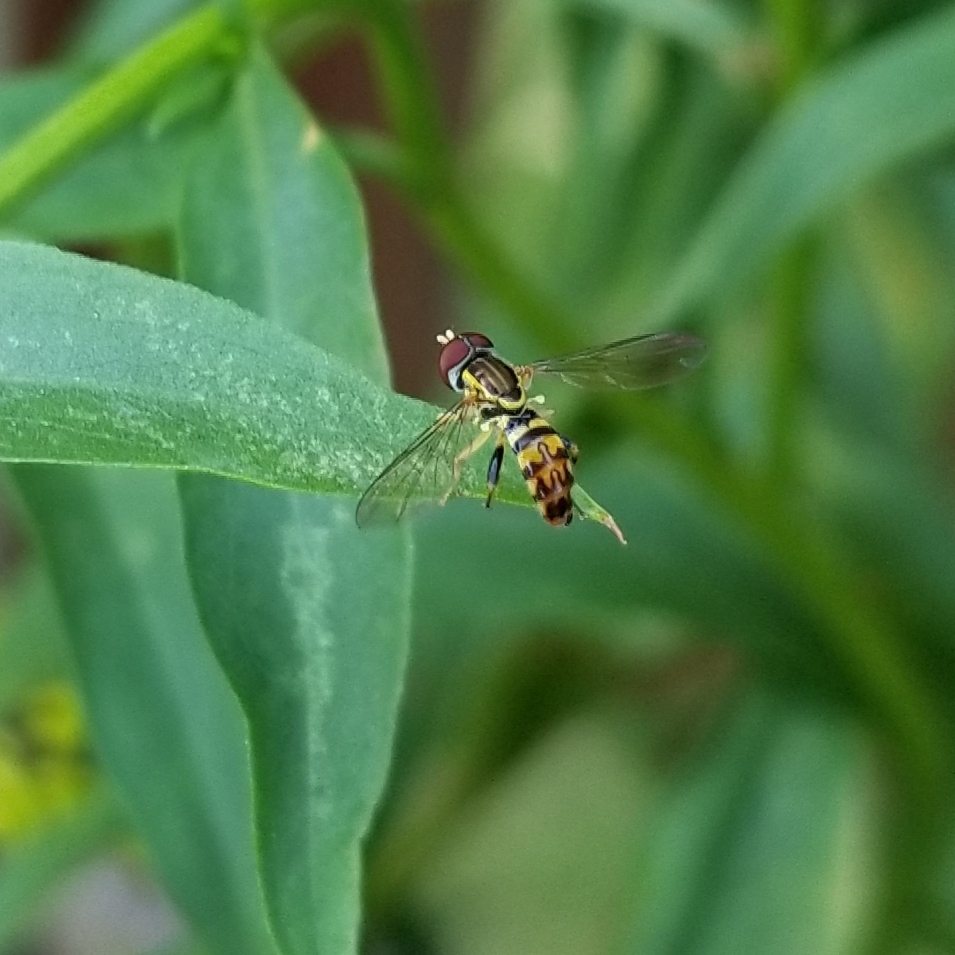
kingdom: Animalia
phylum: Arthropoda
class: Insecta
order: Diptera
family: Syrphidae
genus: Toxomerus
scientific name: Toxomerus geminatus
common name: Eastern calligrapher
